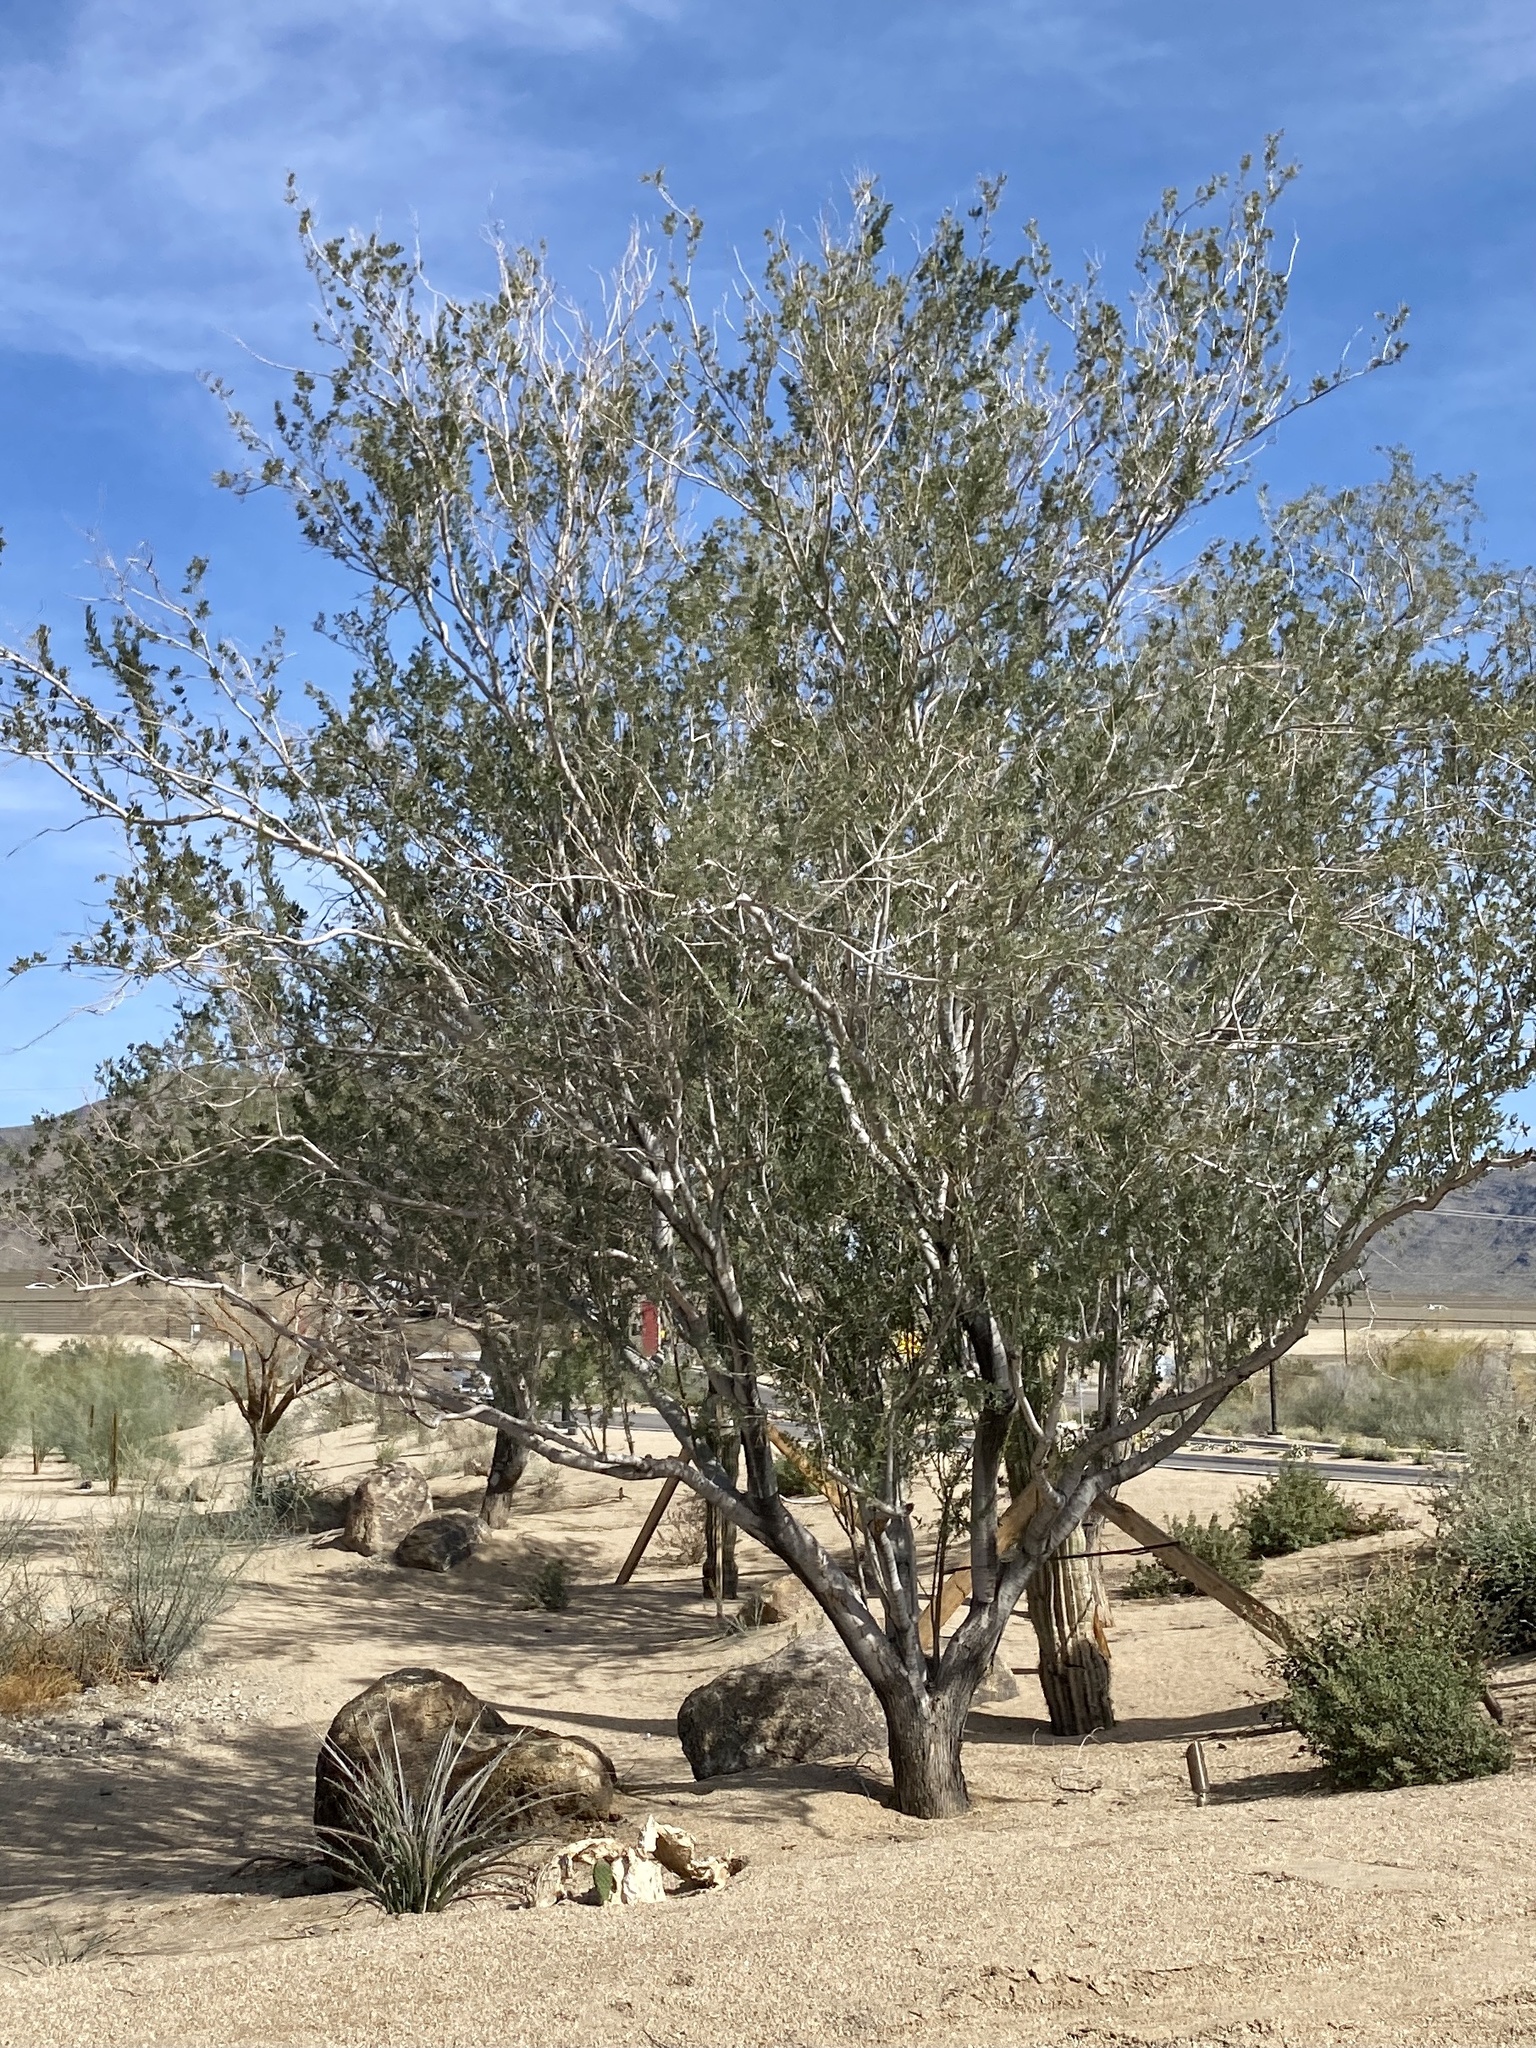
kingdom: Plantae
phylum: Tracheophyta
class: Magnoliopsida
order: Fabales
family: Fabaceae
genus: Olneya
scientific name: Olneya tesota
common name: Desert ironwood
